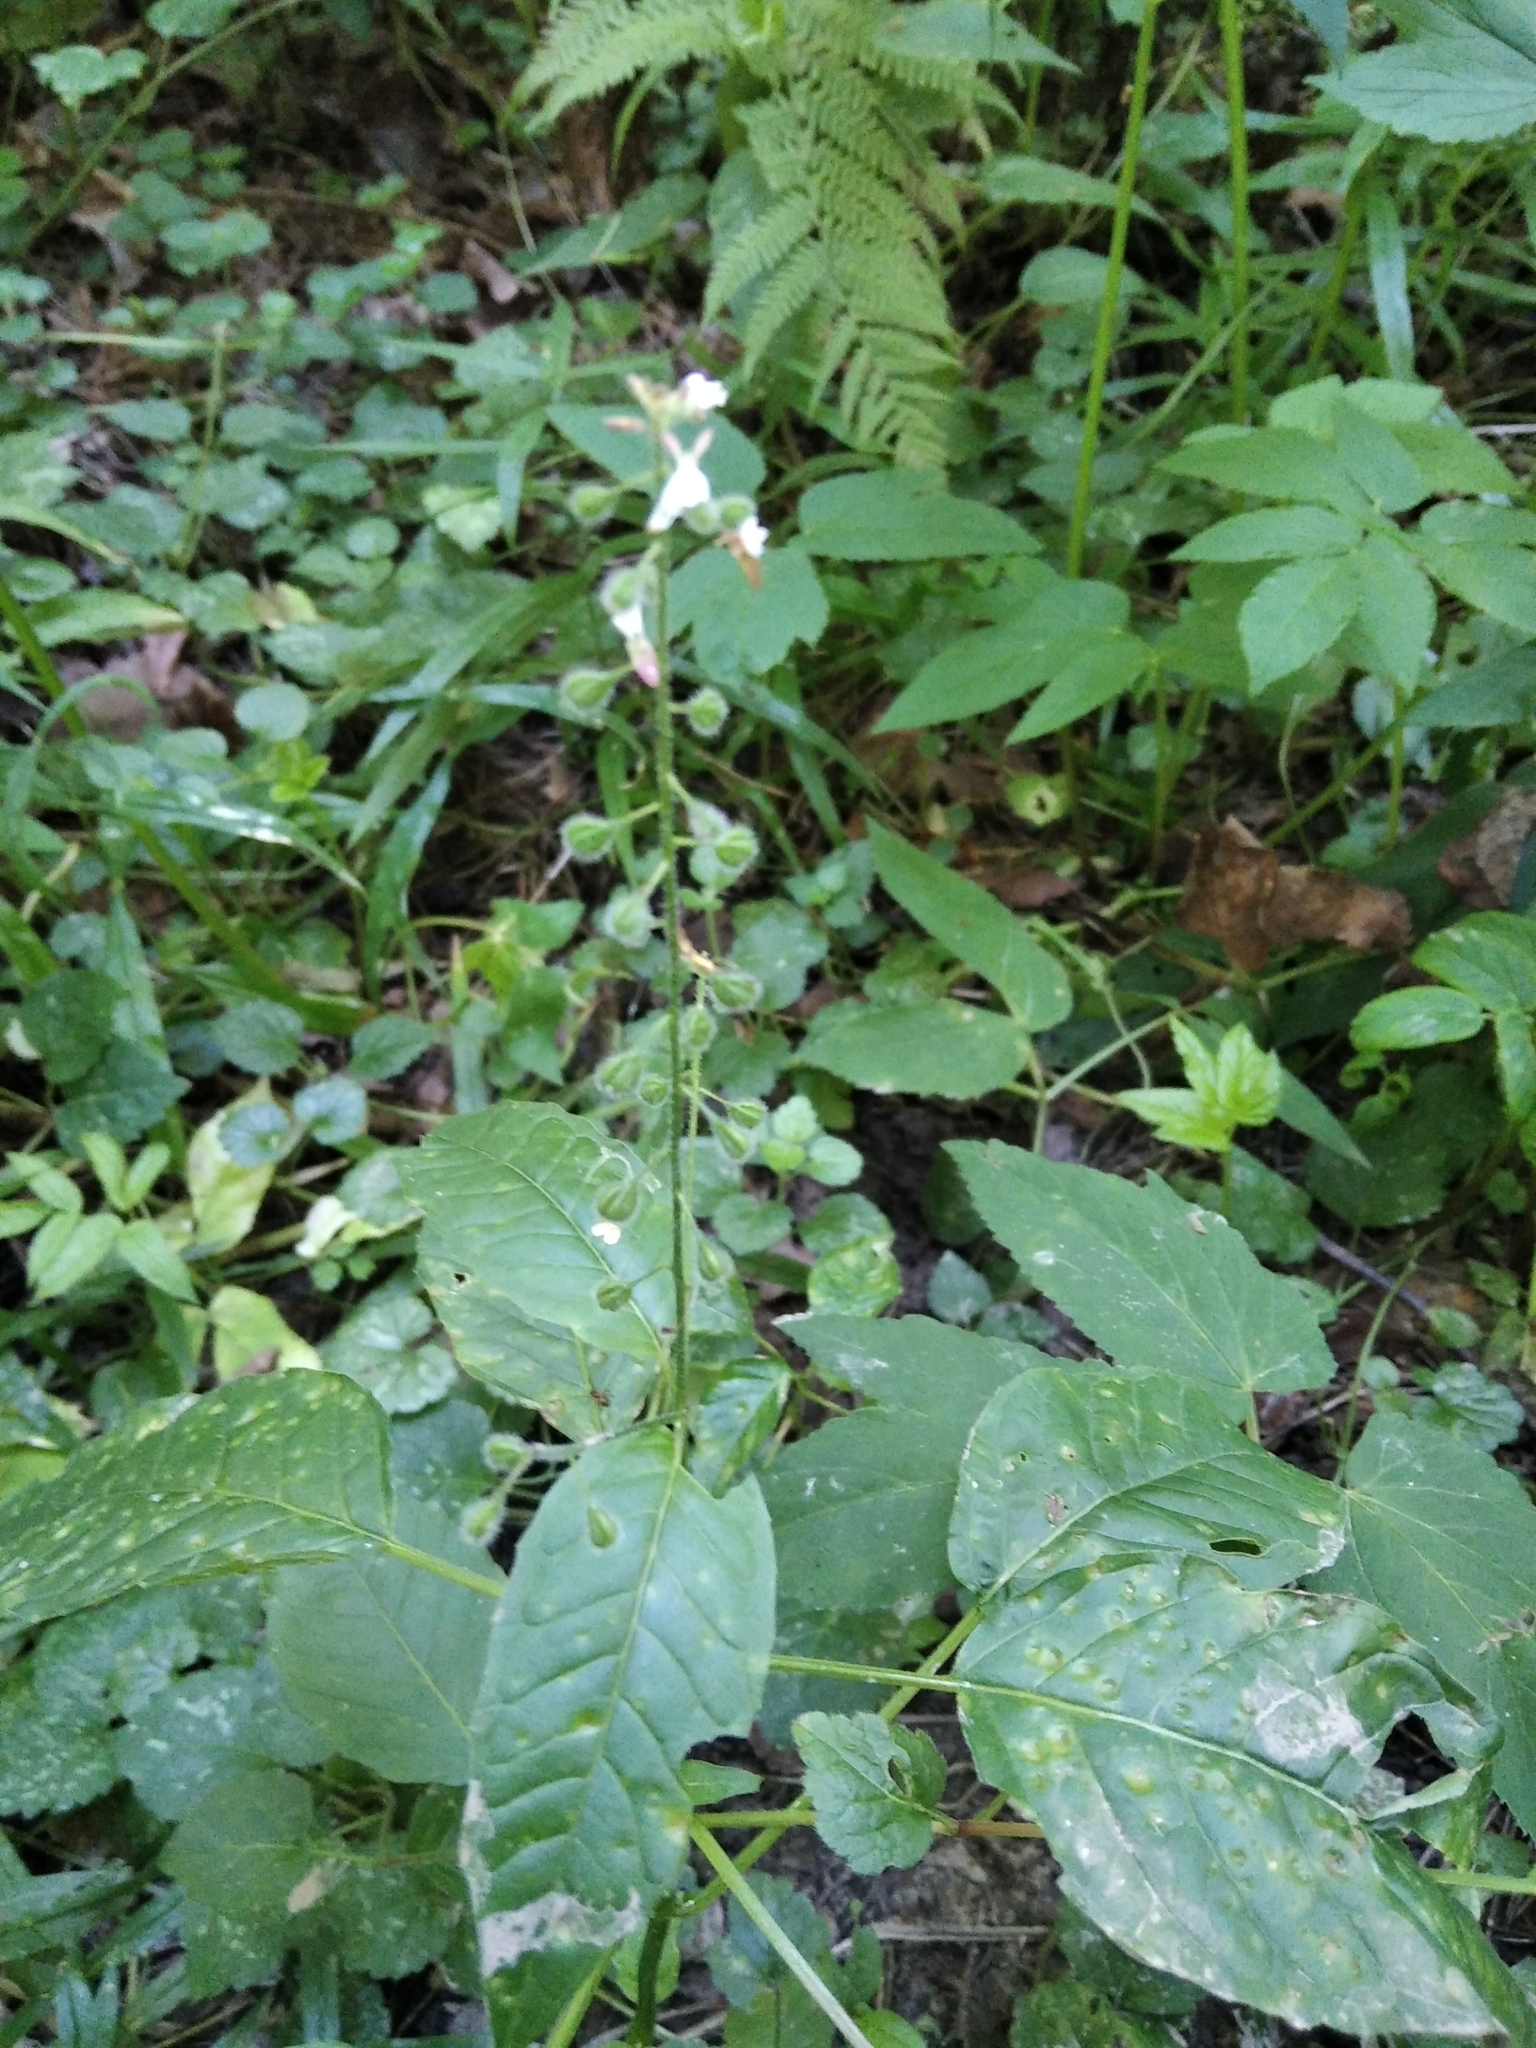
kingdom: Plantae
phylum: Tracheophyta
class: Magnoliopsida
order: Myrtales
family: Onagraceae
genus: Circaea
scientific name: Circaea lutetiana
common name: Enchanter's-nightshade
